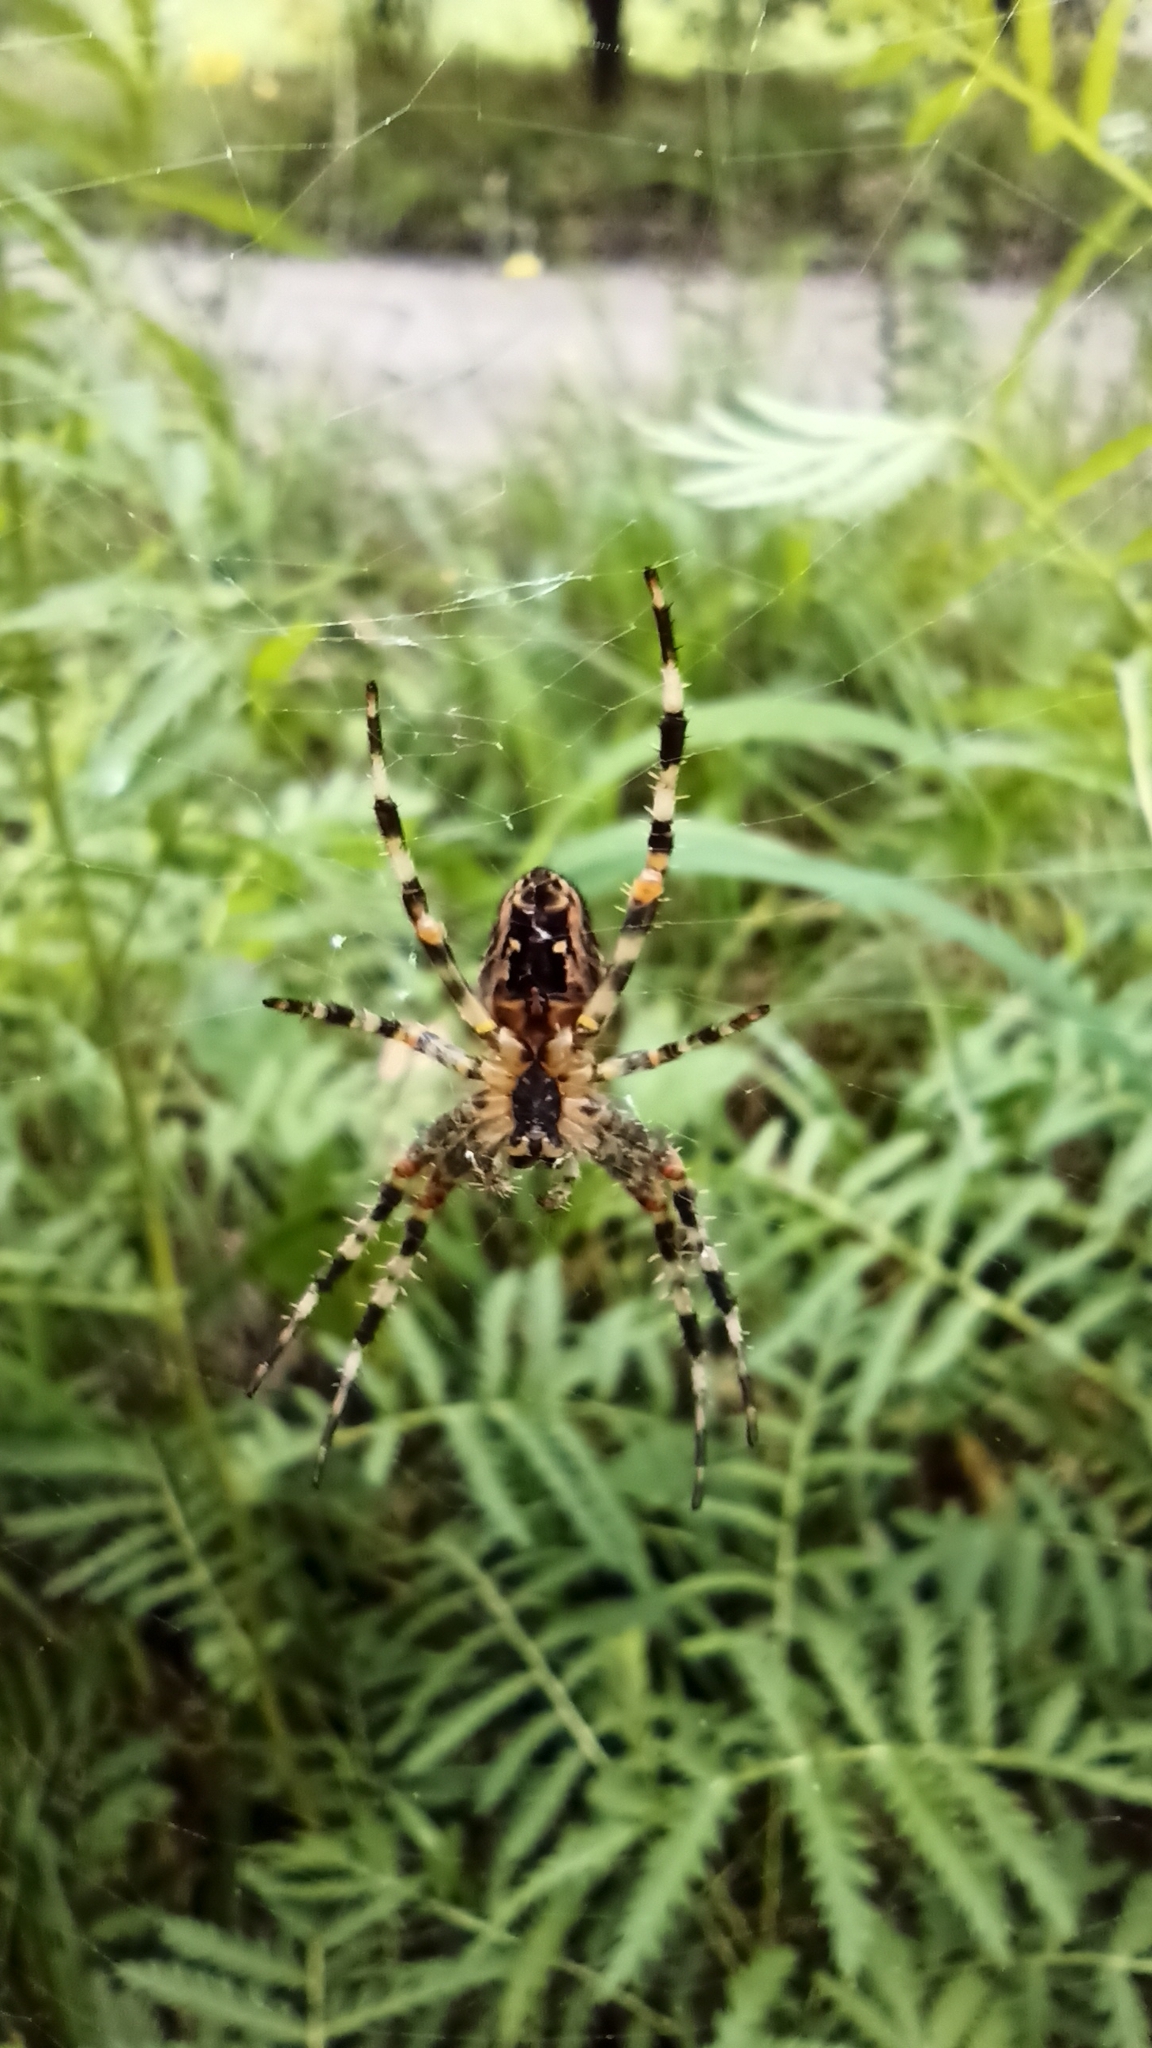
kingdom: Animalia
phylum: Arthropoda
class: Arachnida
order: Araneae
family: Araneidae
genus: Araneus
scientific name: Araneus diadematus
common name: Cross orbweaver
